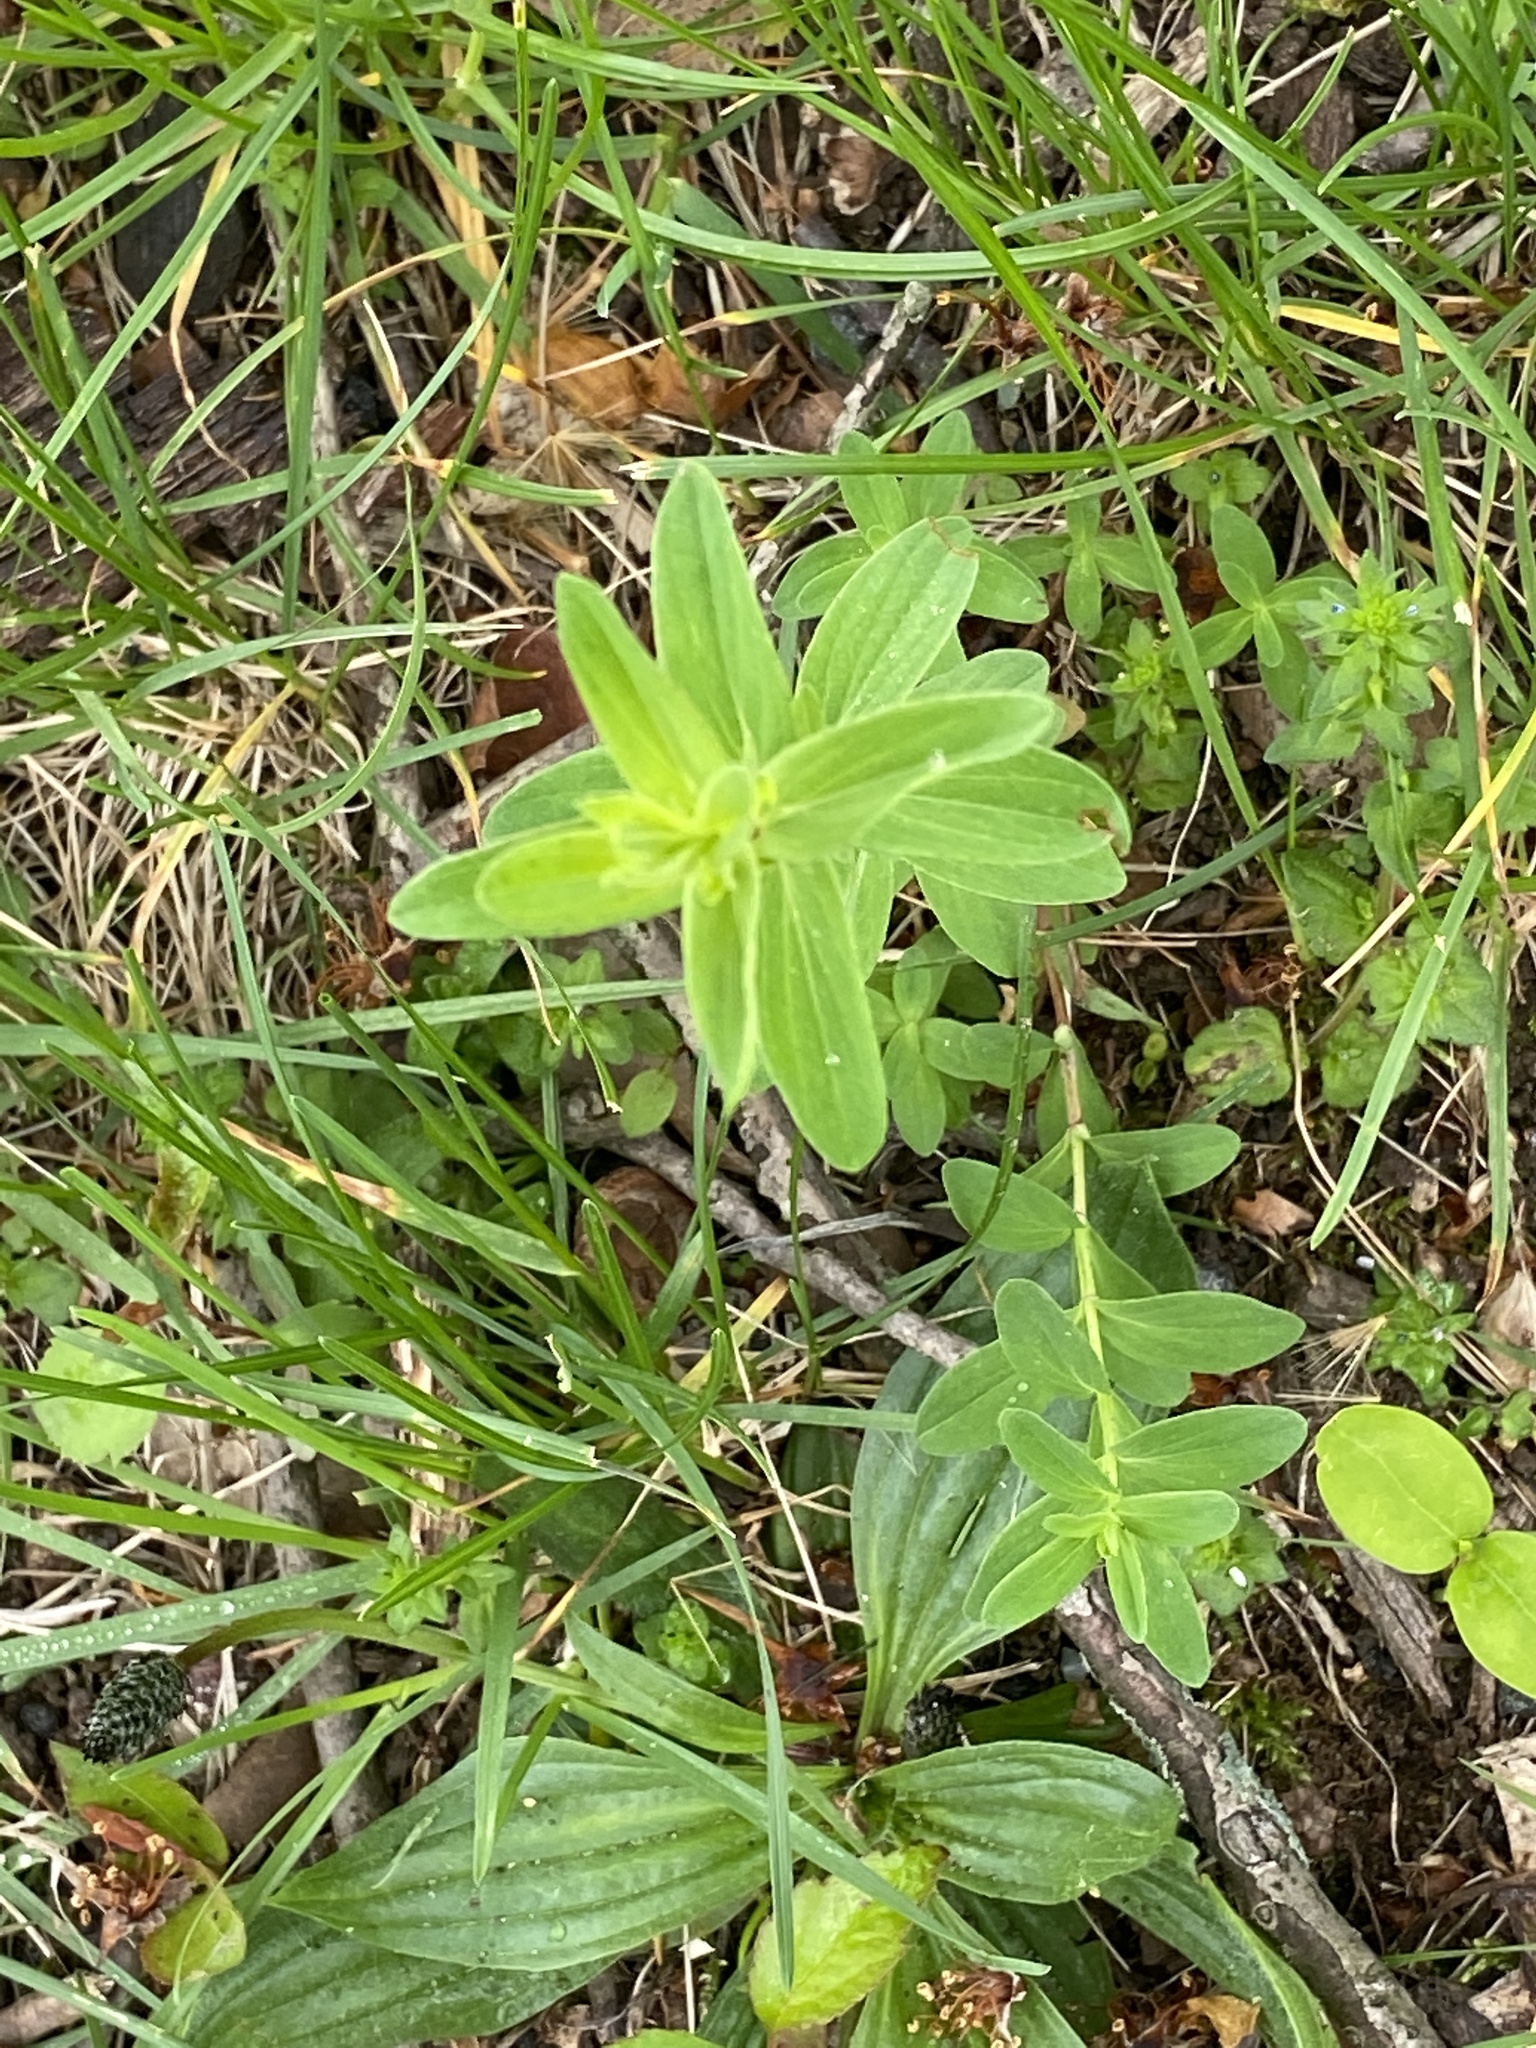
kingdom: Plantae
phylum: Tracheophyta
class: Magnoliopsida
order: Malpighiales
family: Hypericaceae
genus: Hypericum
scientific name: Hypericum perforatum
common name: Common st. johnswort
